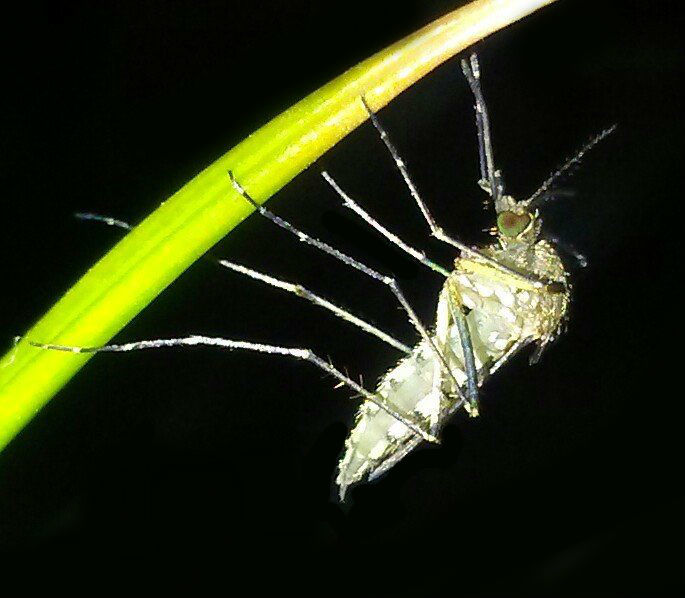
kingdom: Animalia
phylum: Arthropoda
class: Insecta
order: Diptera
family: Culicidae
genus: Aedes
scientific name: Aedes vexans
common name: Inland floodwater mosquito
